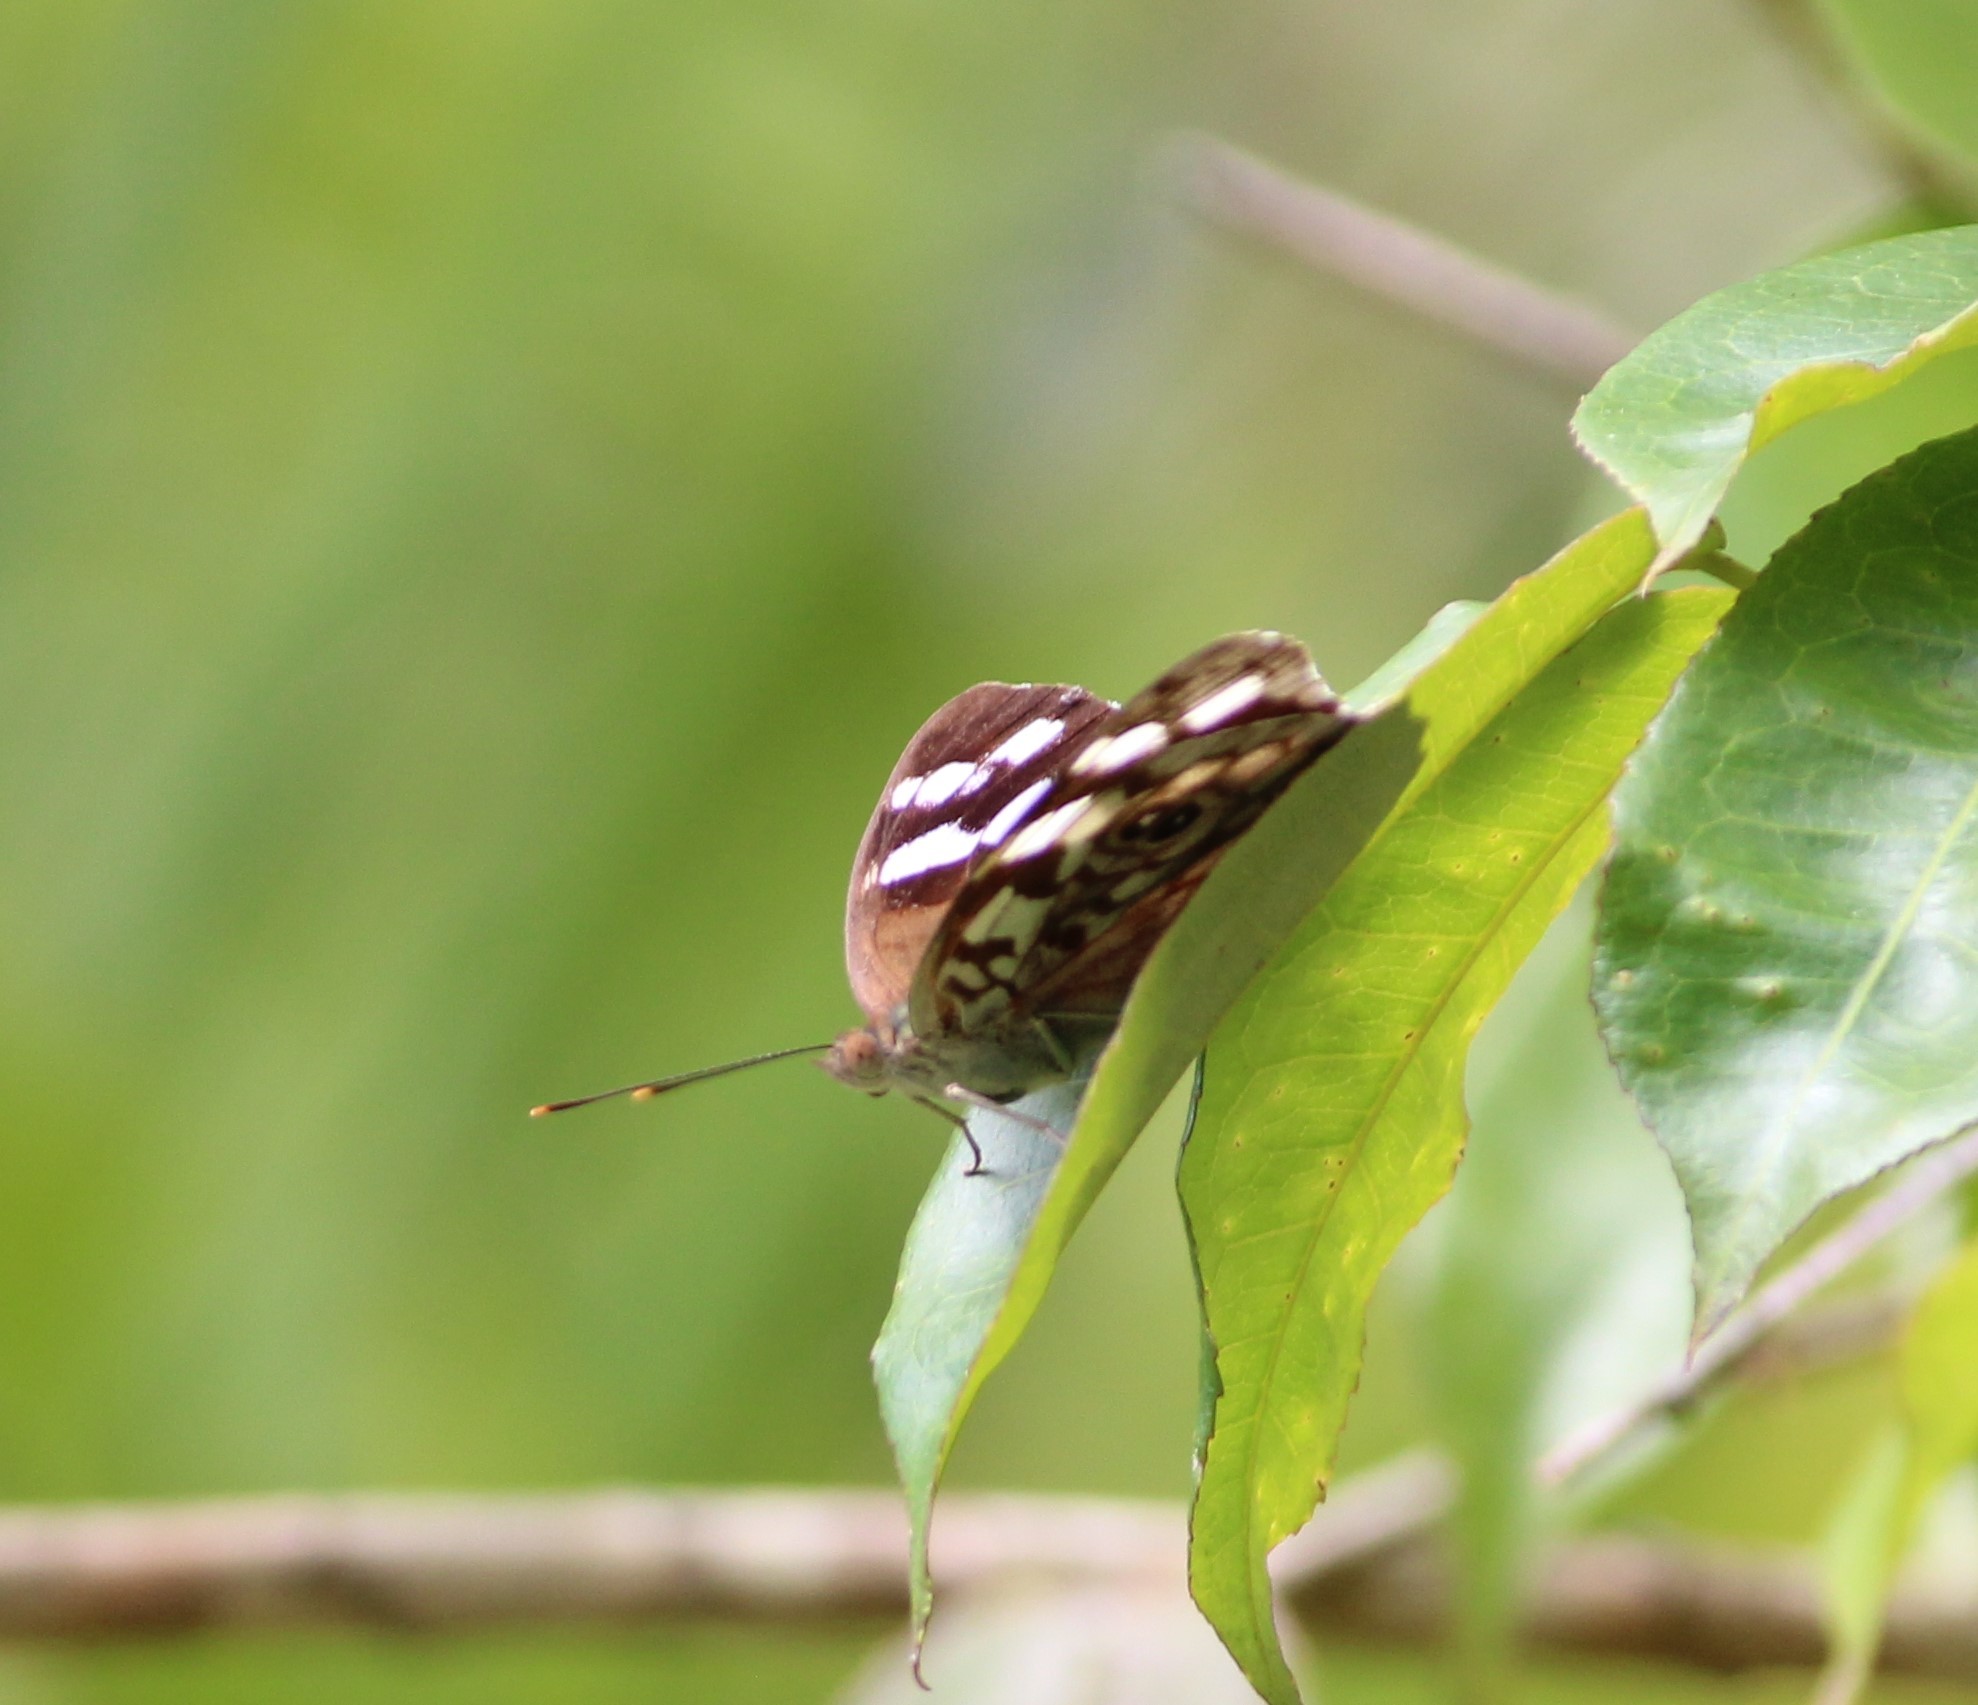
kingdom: Animalia
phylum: Arthropoda
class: Insecta
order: Lepidoptera
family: Nymphalidae
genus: Eunica
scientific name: Eunica malvina
